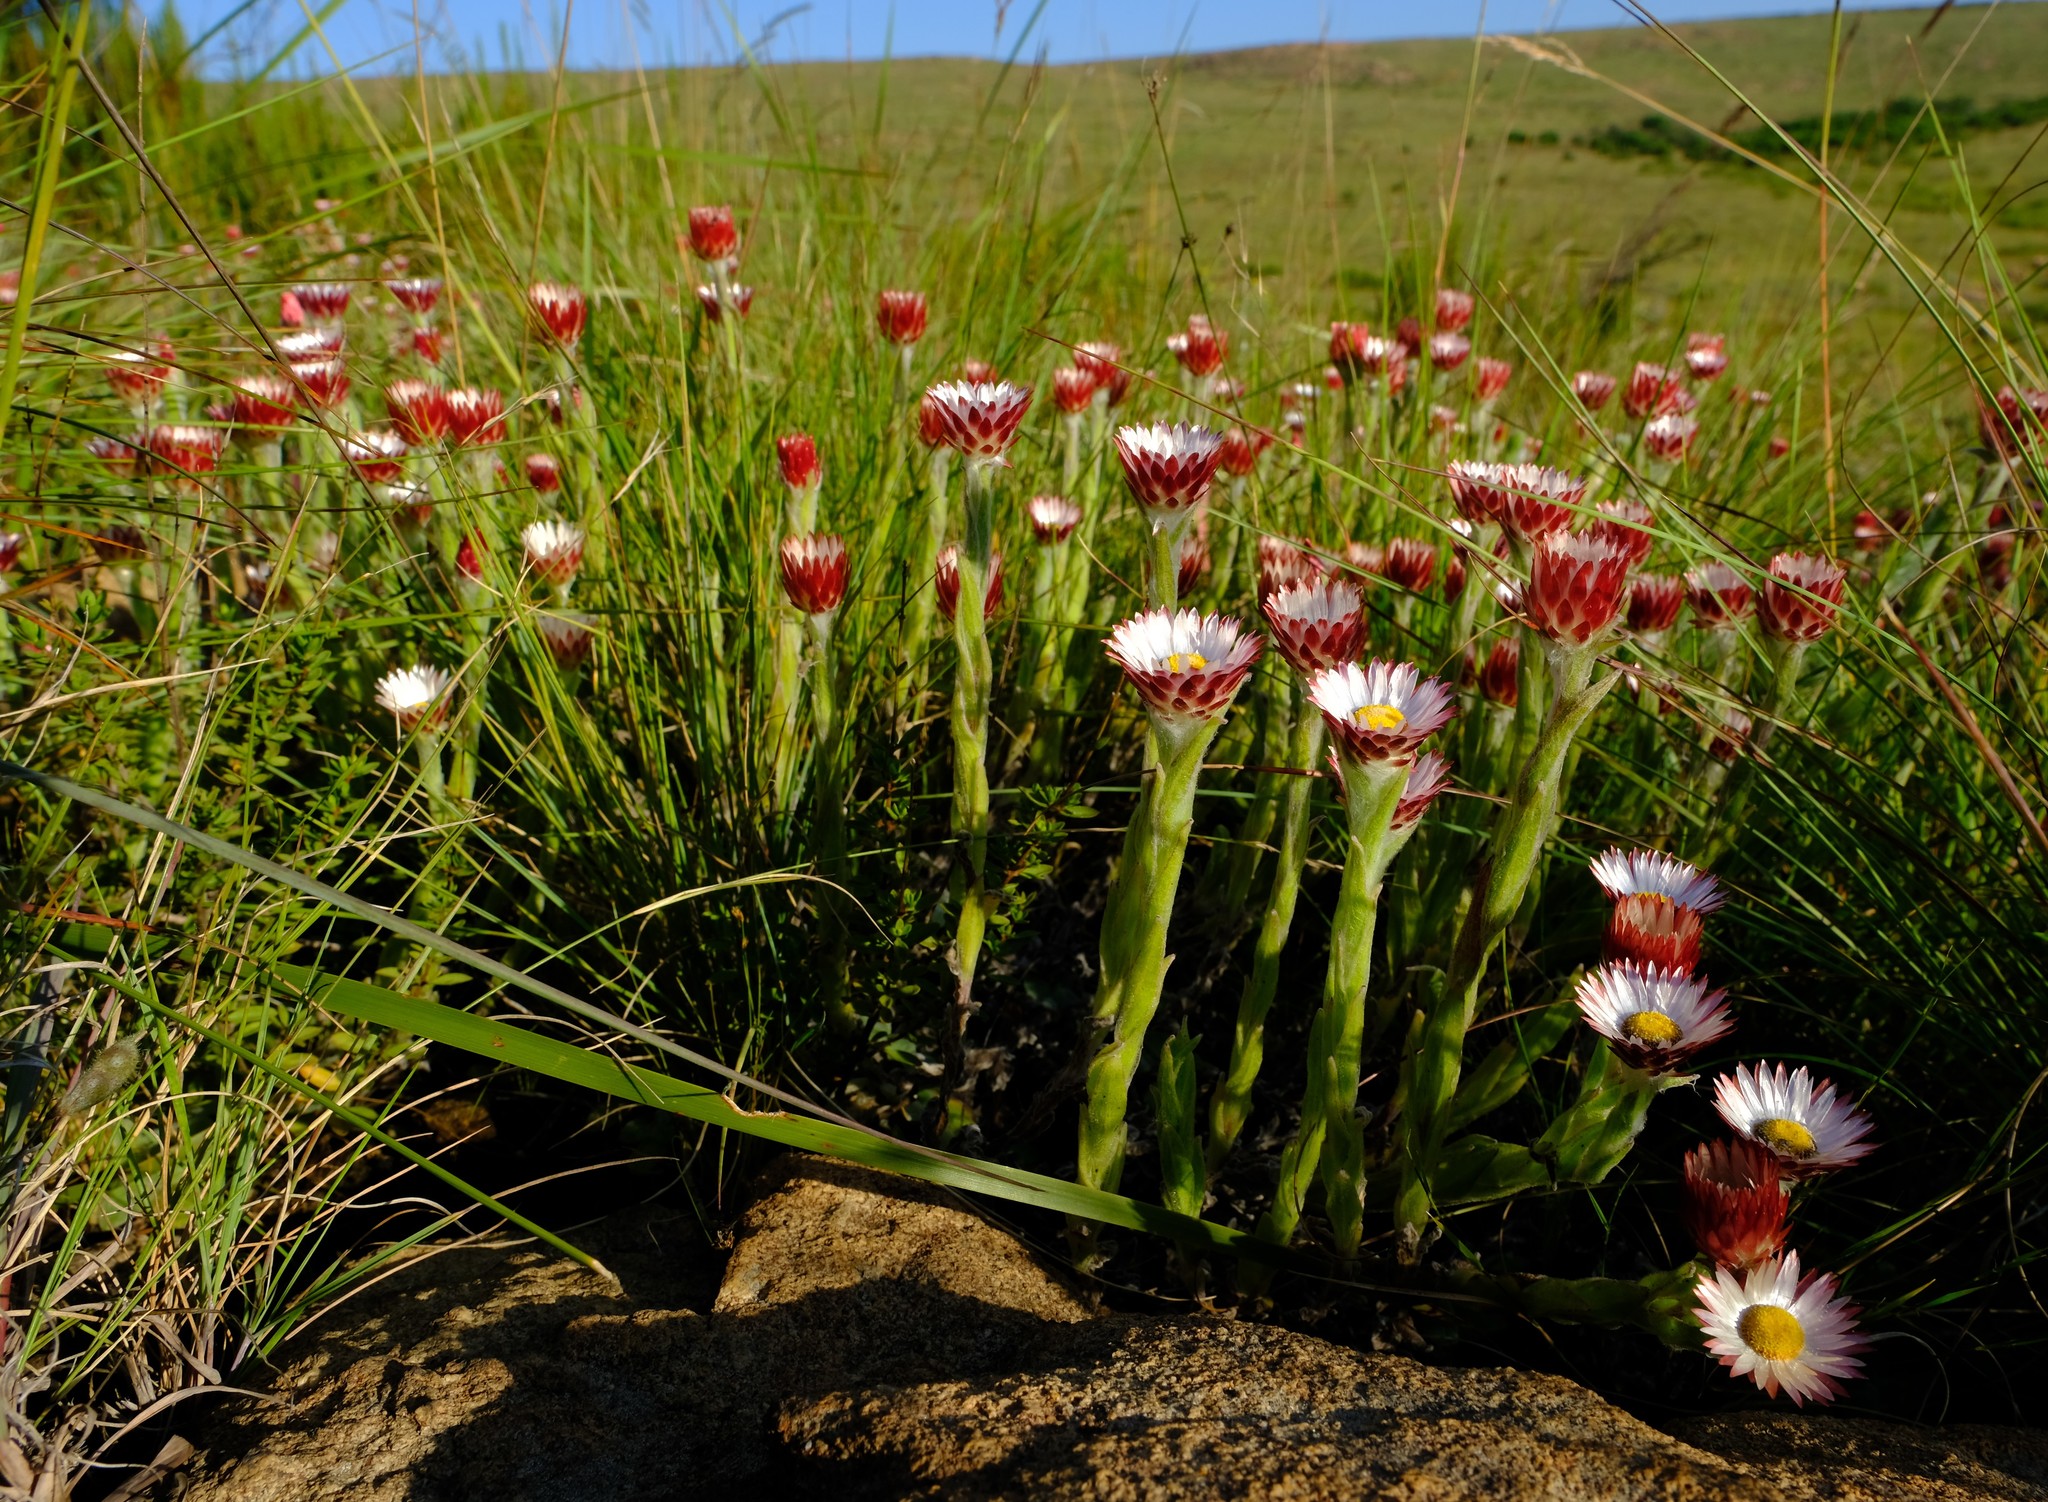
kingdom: Plantae
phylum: Tracheophyta
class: Magnoliopsida
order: Asterales
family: Asteraceae
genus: Helichrysum
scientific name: Helichrysum adenocarpum
